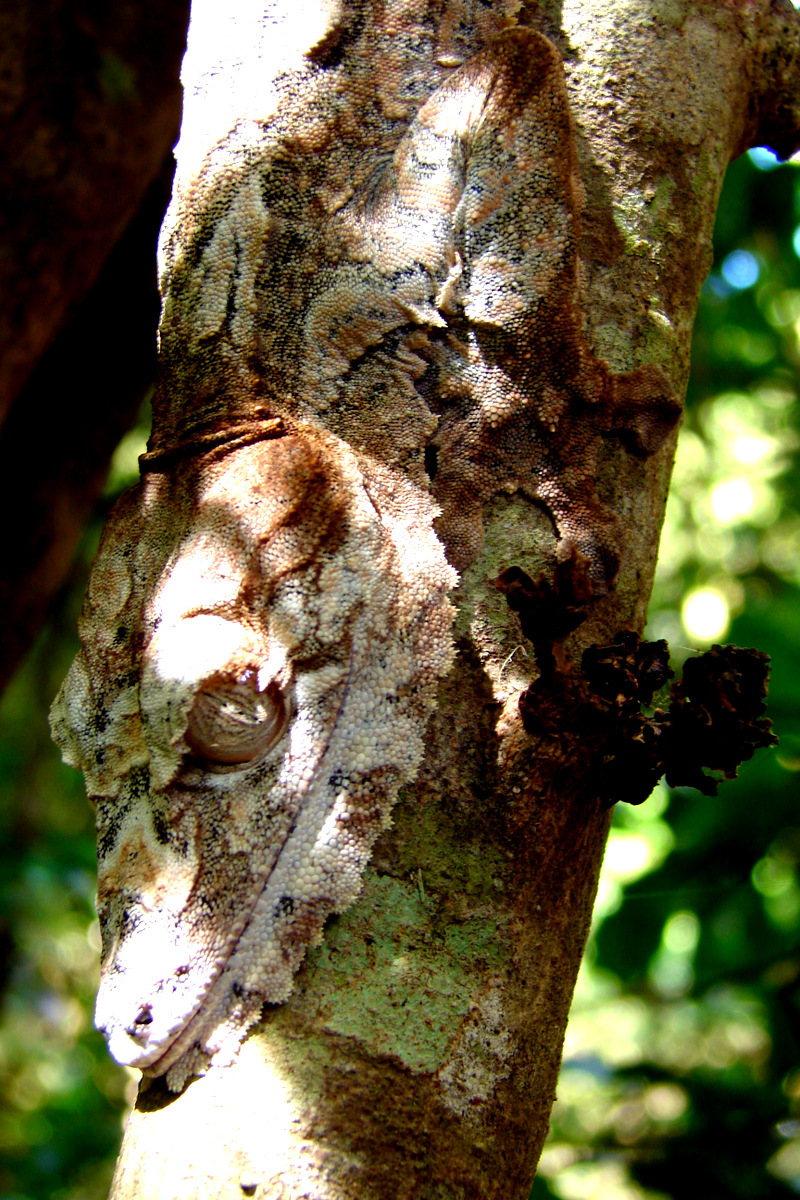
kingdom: Animalia
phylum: Chordata
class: Squamata
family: Gekkonidae
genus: Uroplatus
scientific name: Uroplatus giganteus
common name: Giant leaf-tail gecko
